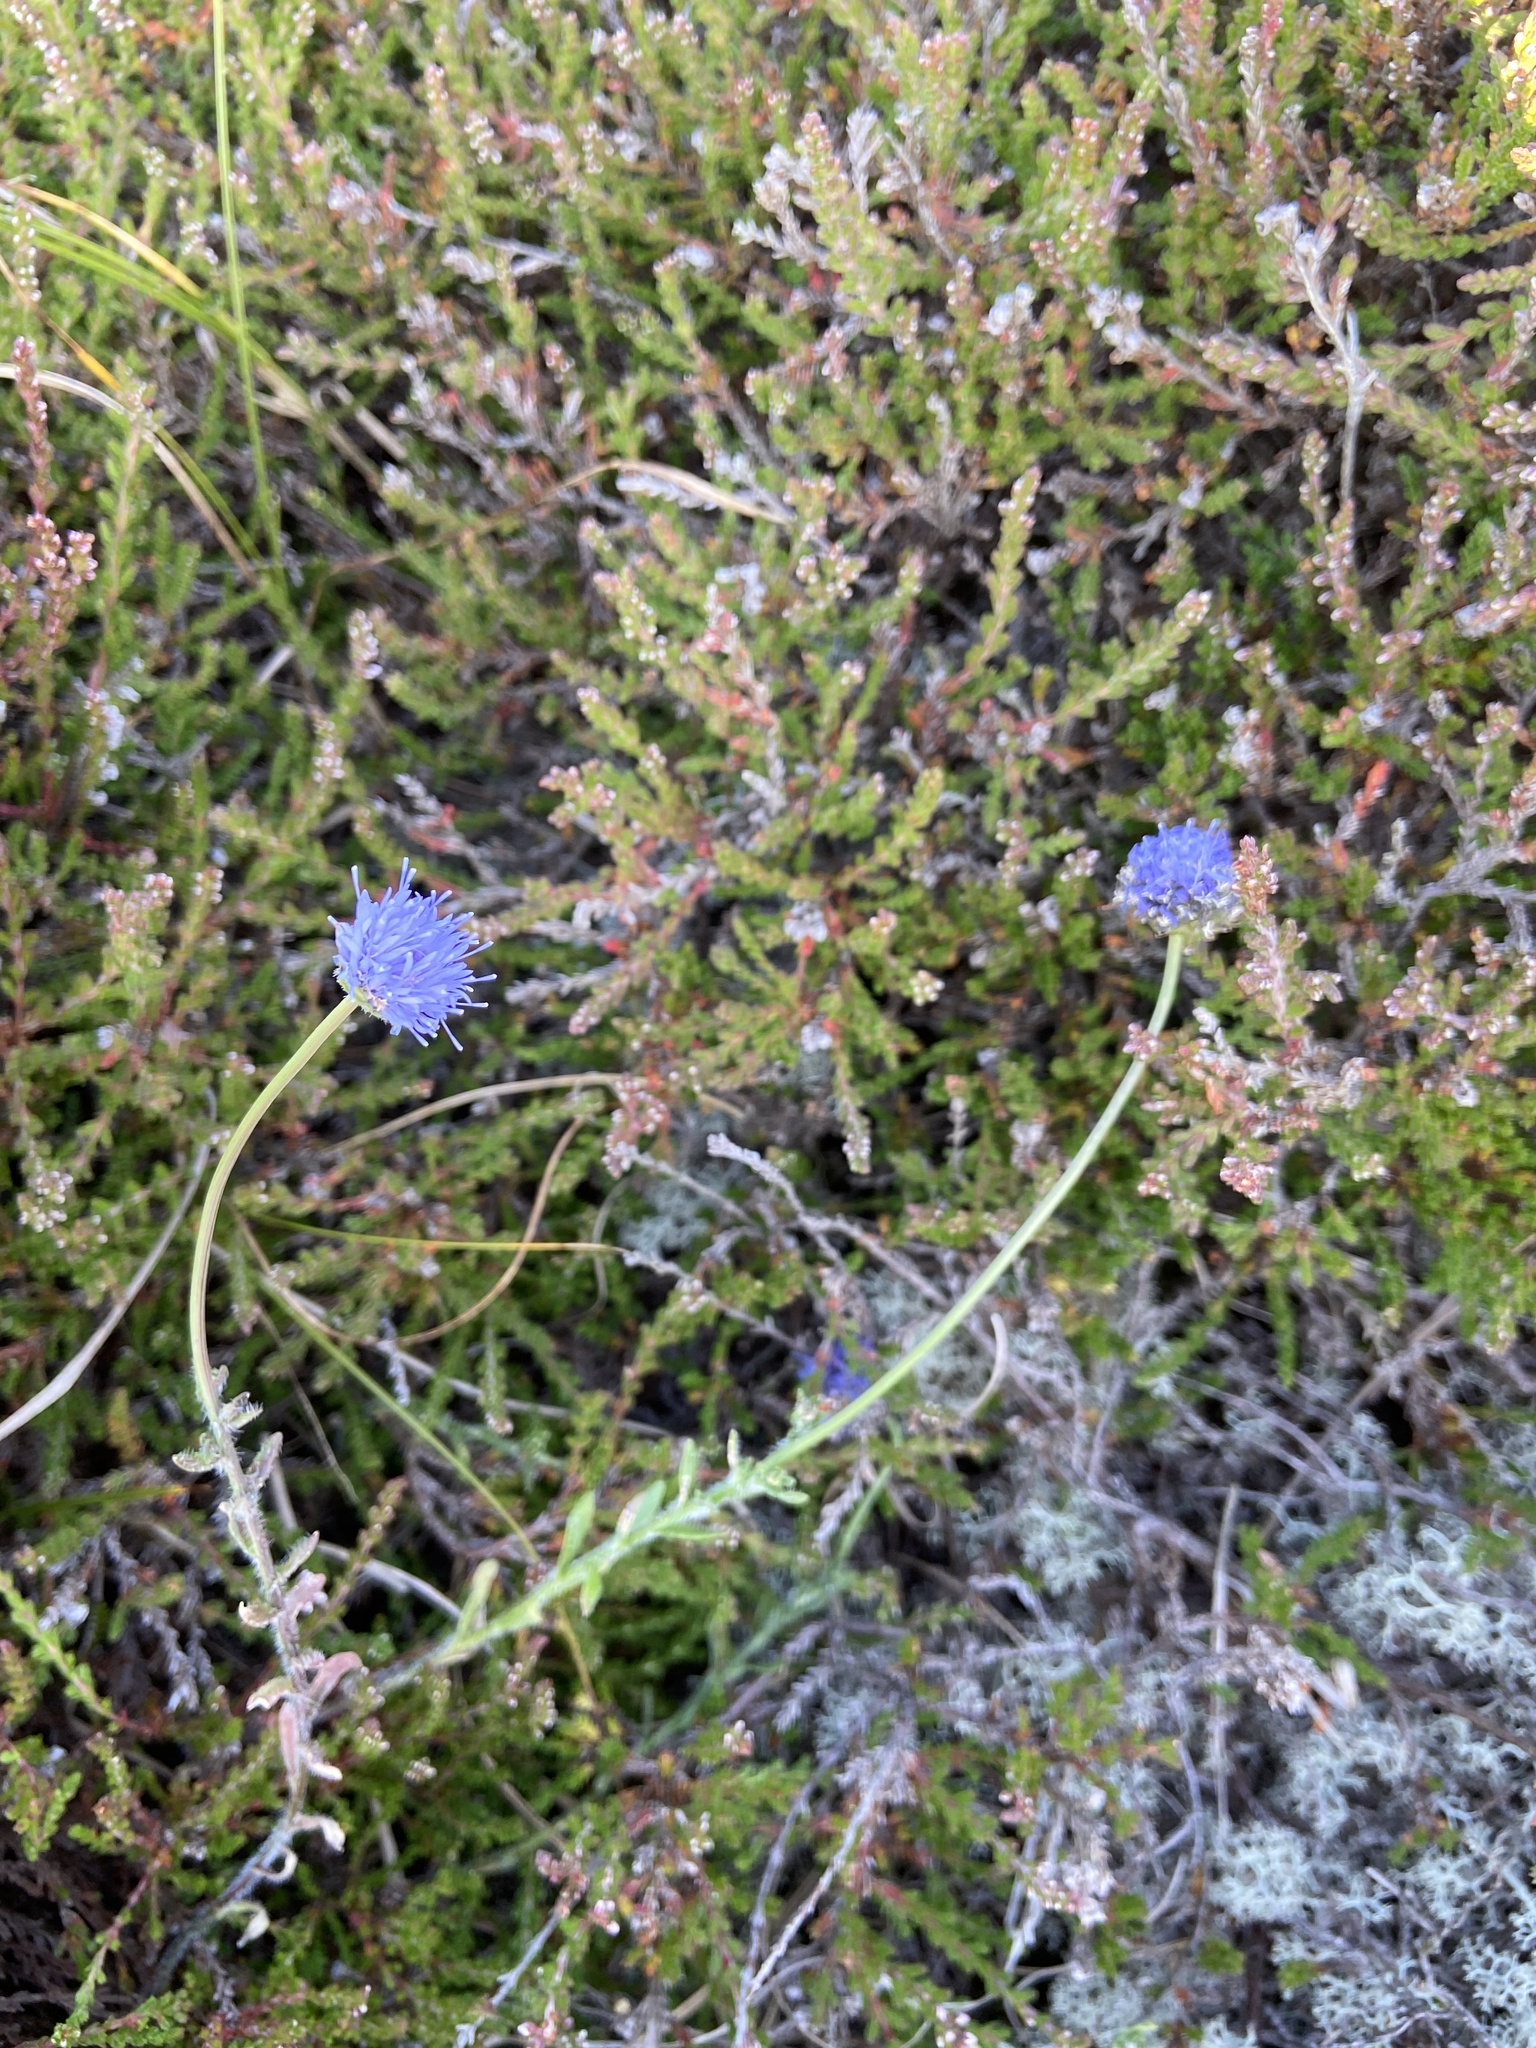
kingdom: Plantae
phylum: Tracheophyta
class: Magnoliopsida
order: Asterales
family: Campanulaceae
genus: Jasione
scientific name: Jasione montana
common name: Sheep's-bit
